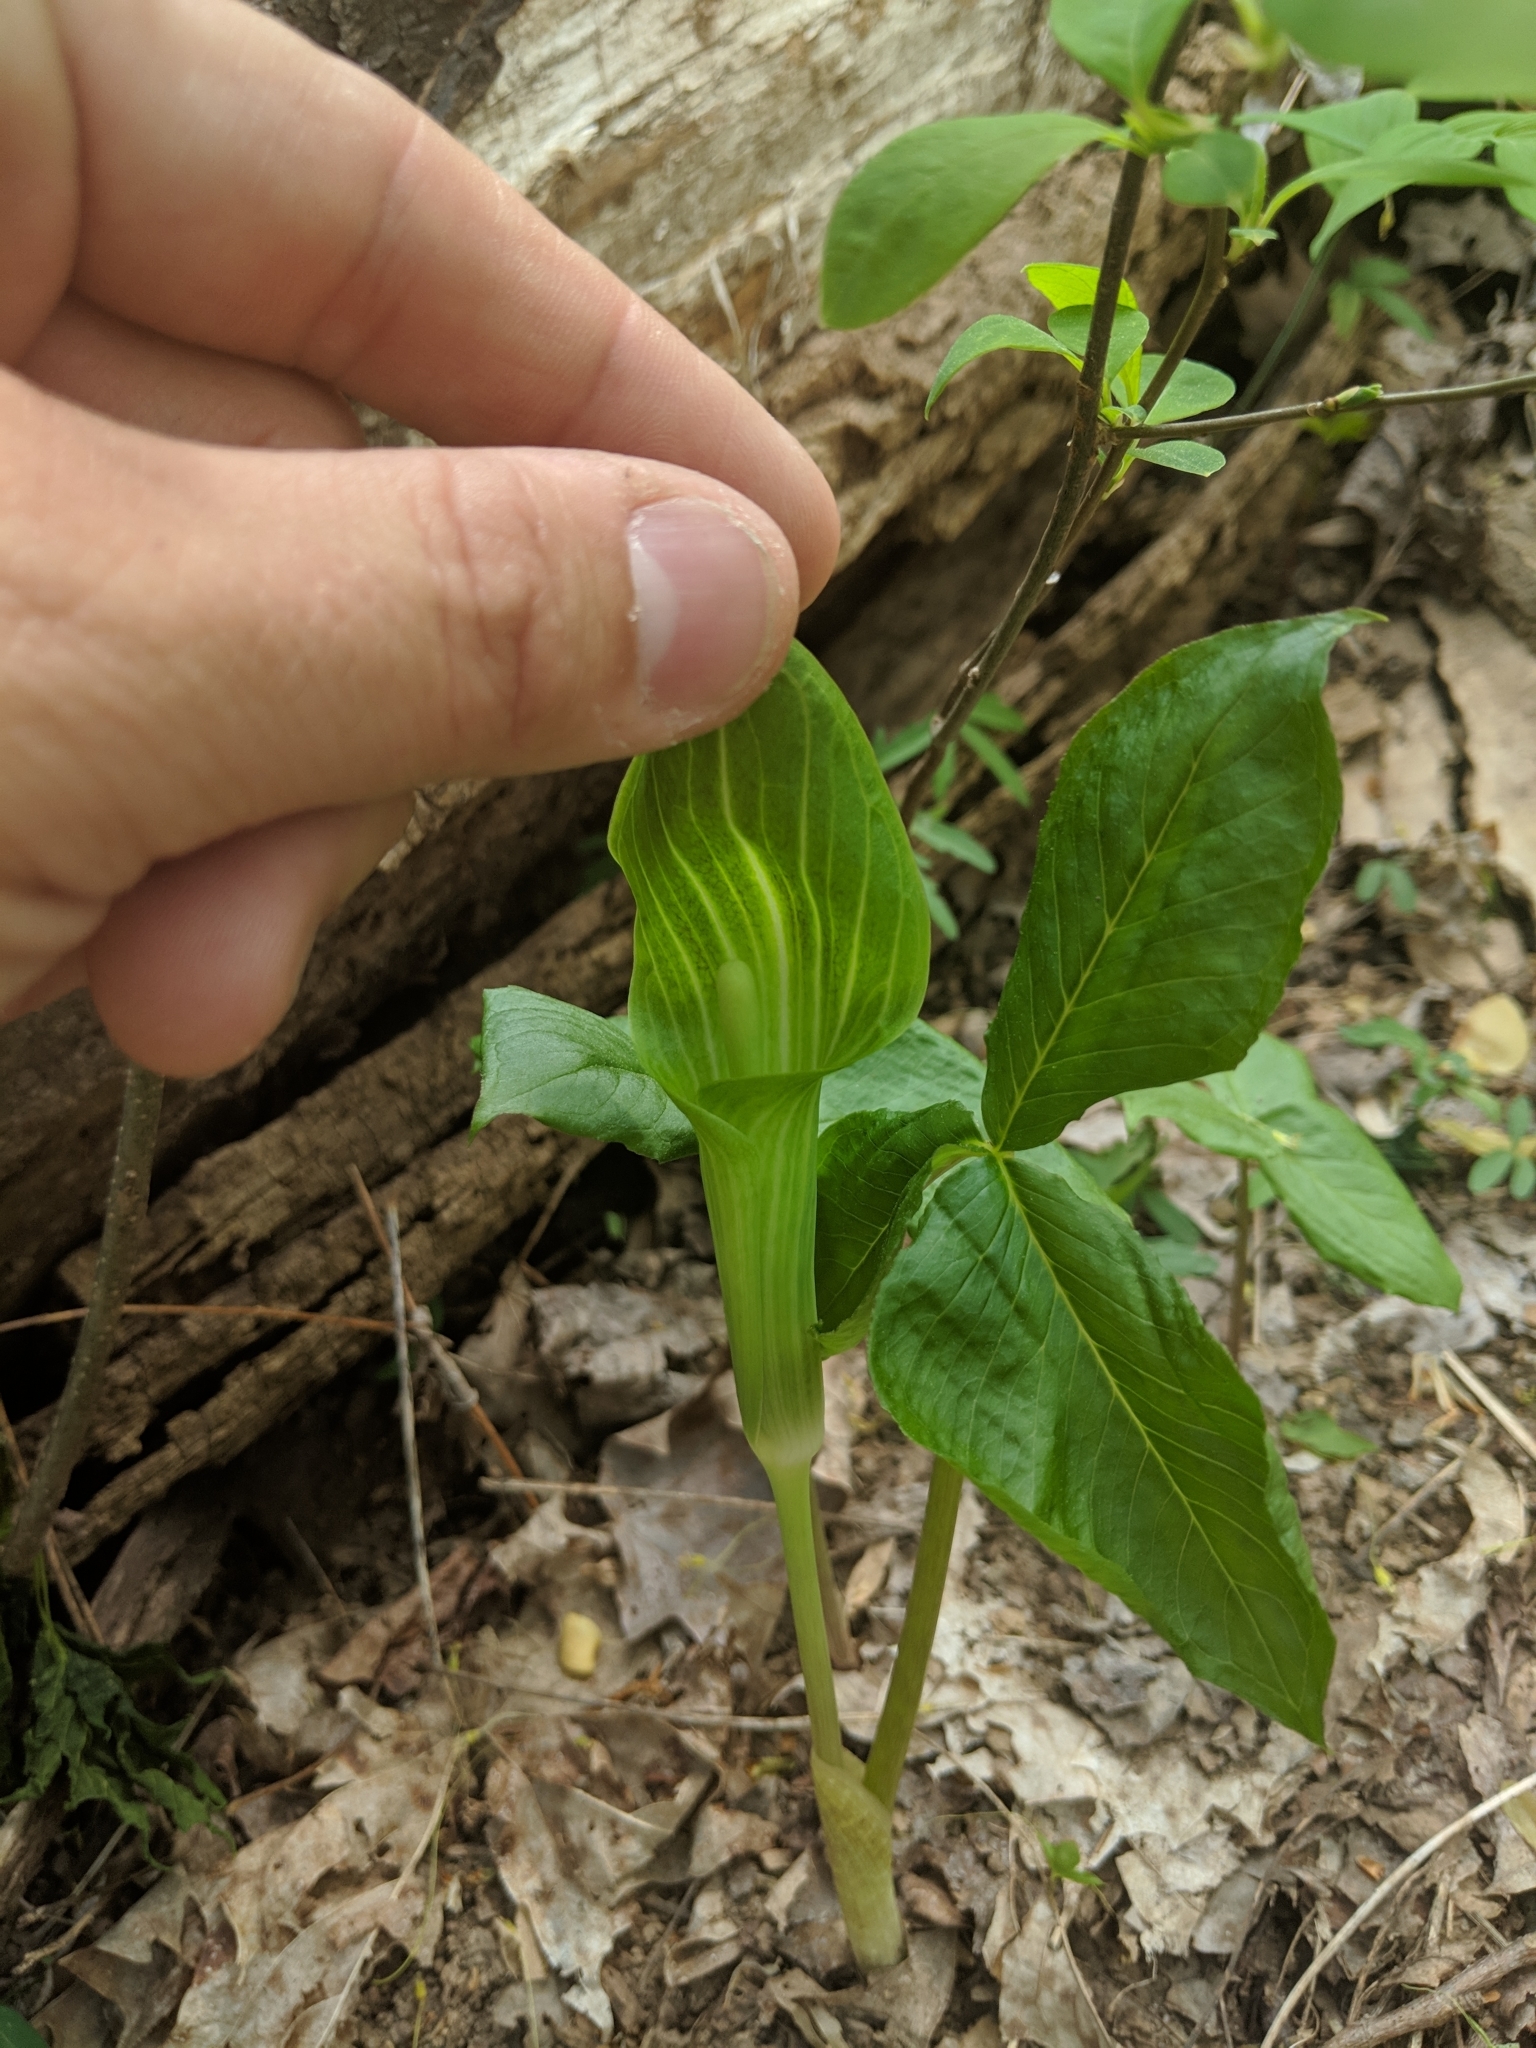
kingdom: Plantae
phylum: Tracheophyta
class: Liliopsida
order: Alismatales
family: Araceae
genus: Arisaema
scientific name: Arisaema triphyllum
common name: Jack-in-the-pulpit
